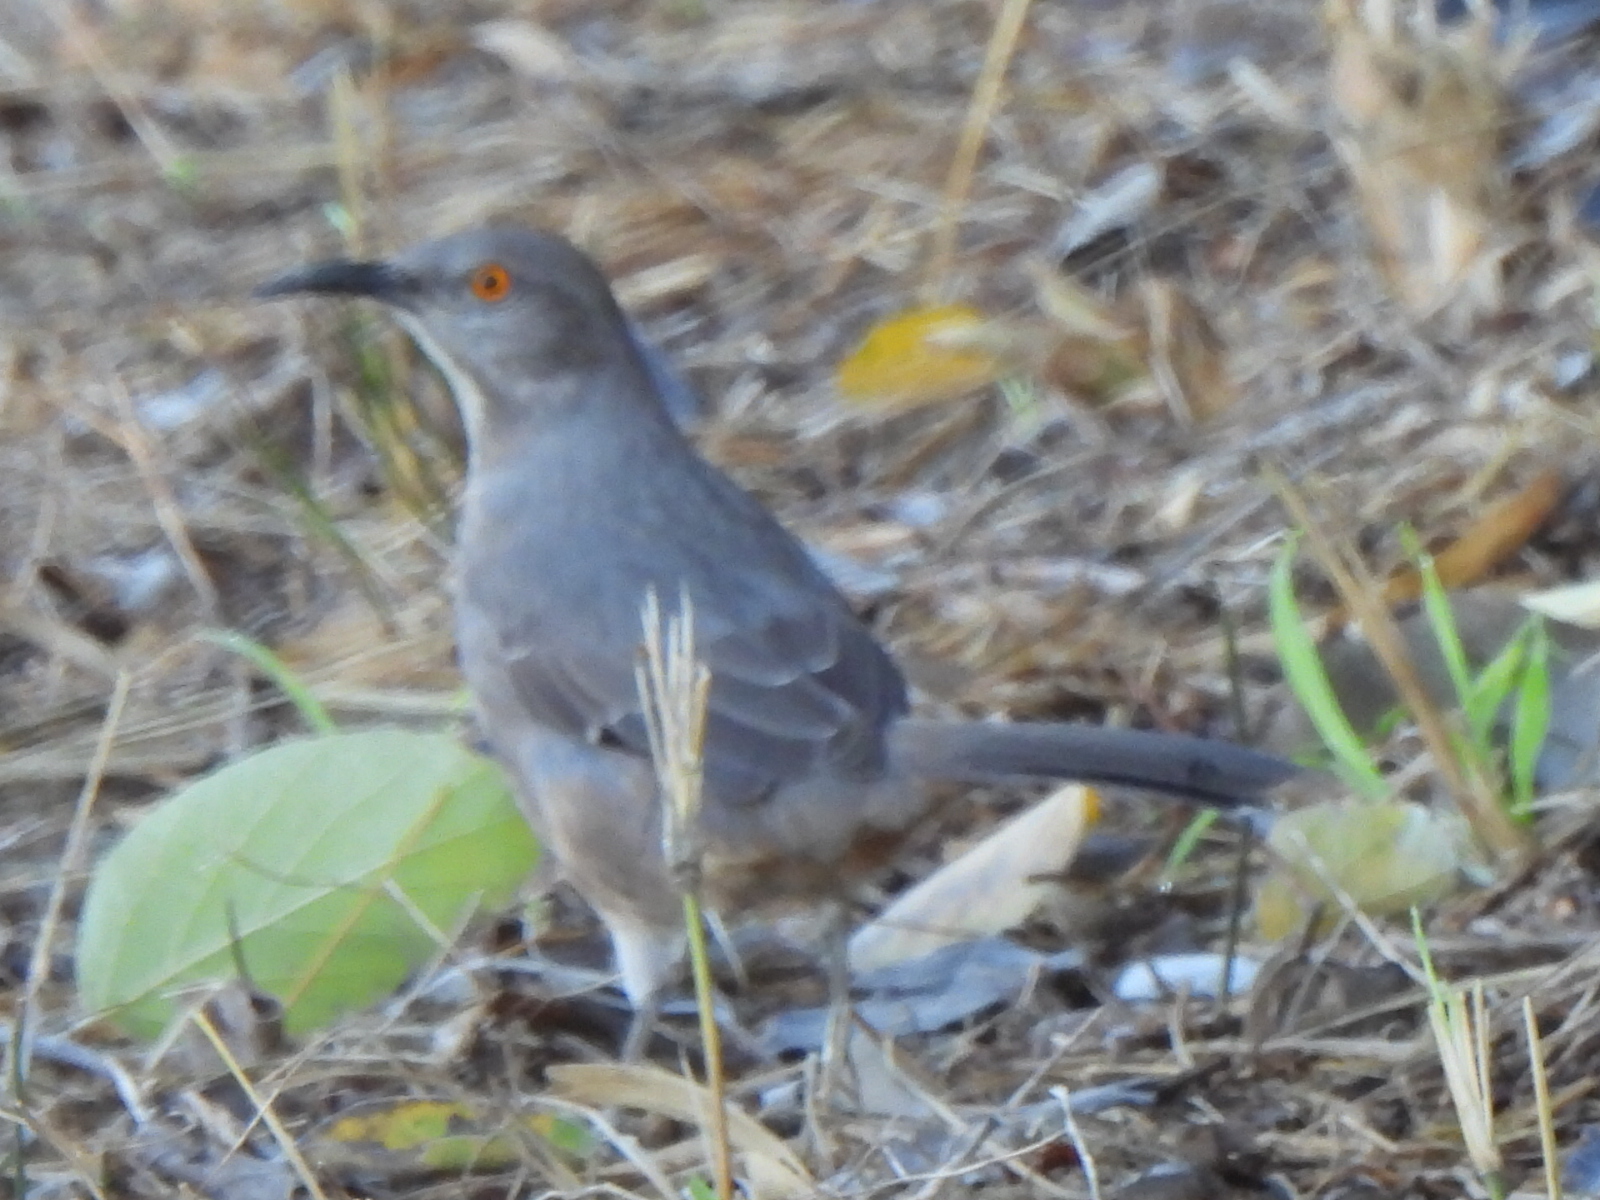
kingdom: Animalia
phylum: Chordata
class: Aves
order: Passeriformes
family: Mimidae
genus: Toxostoma
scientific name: Toxostoma curvirostre
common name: Curve-billed thrasher
